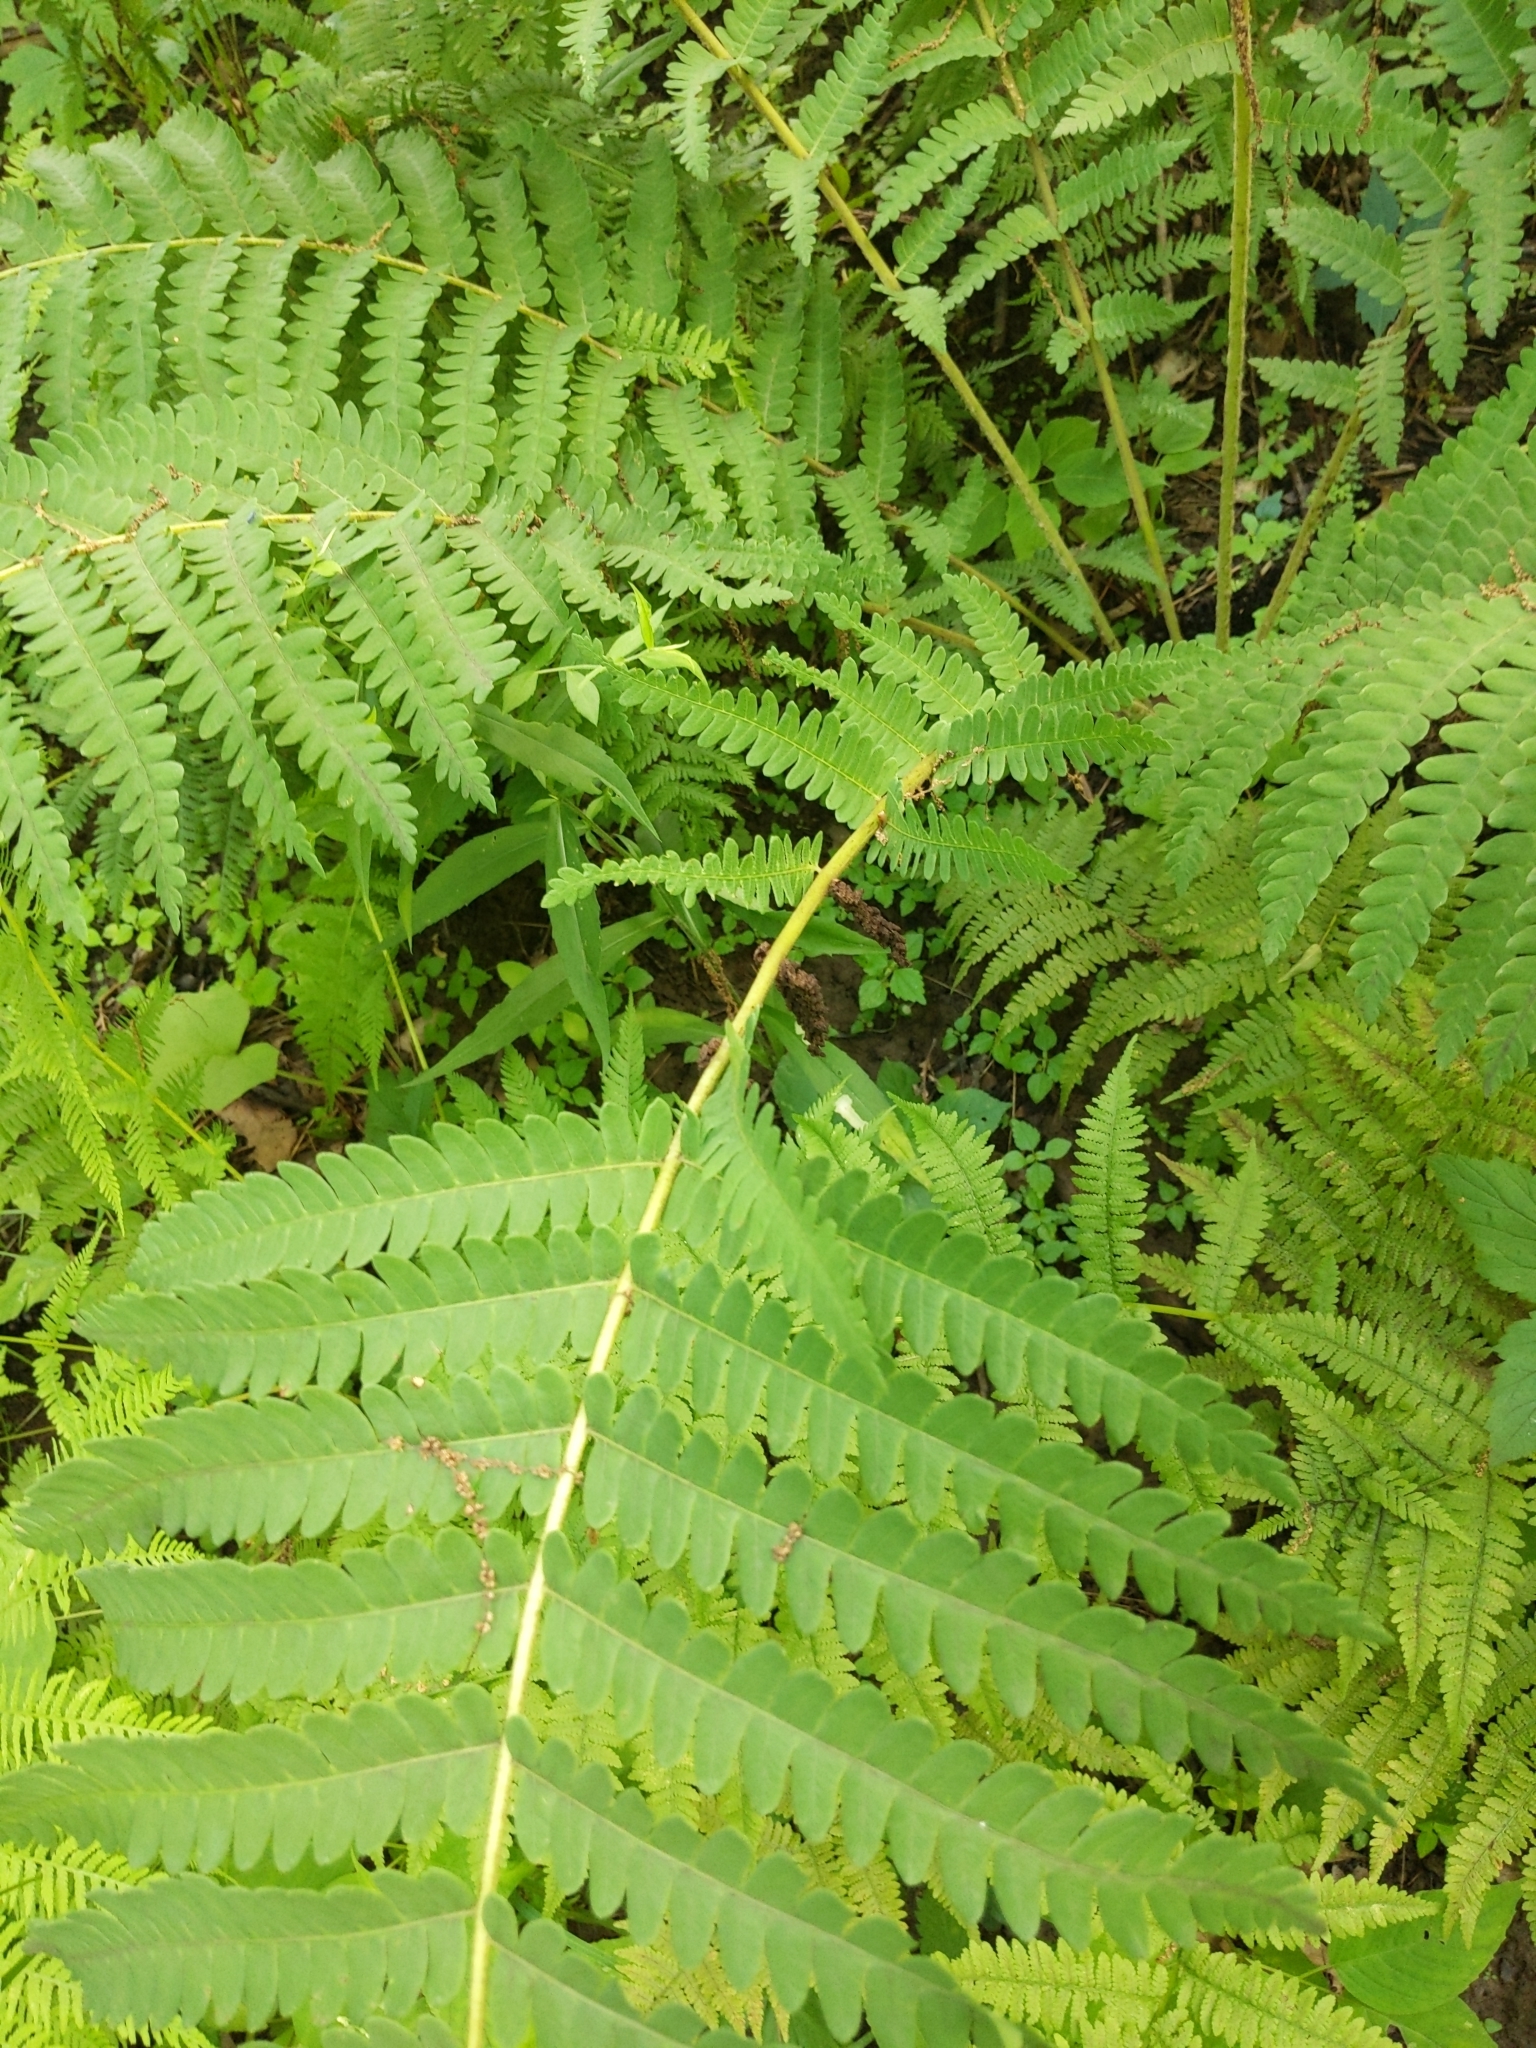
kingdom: Plantae
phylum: Tracheophyta
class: Polypodiopsida
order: Osmundales
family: Osmundaceae
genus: Claytosmunda
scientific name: Claytosmunda claytoniana
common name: Clayton's fern
